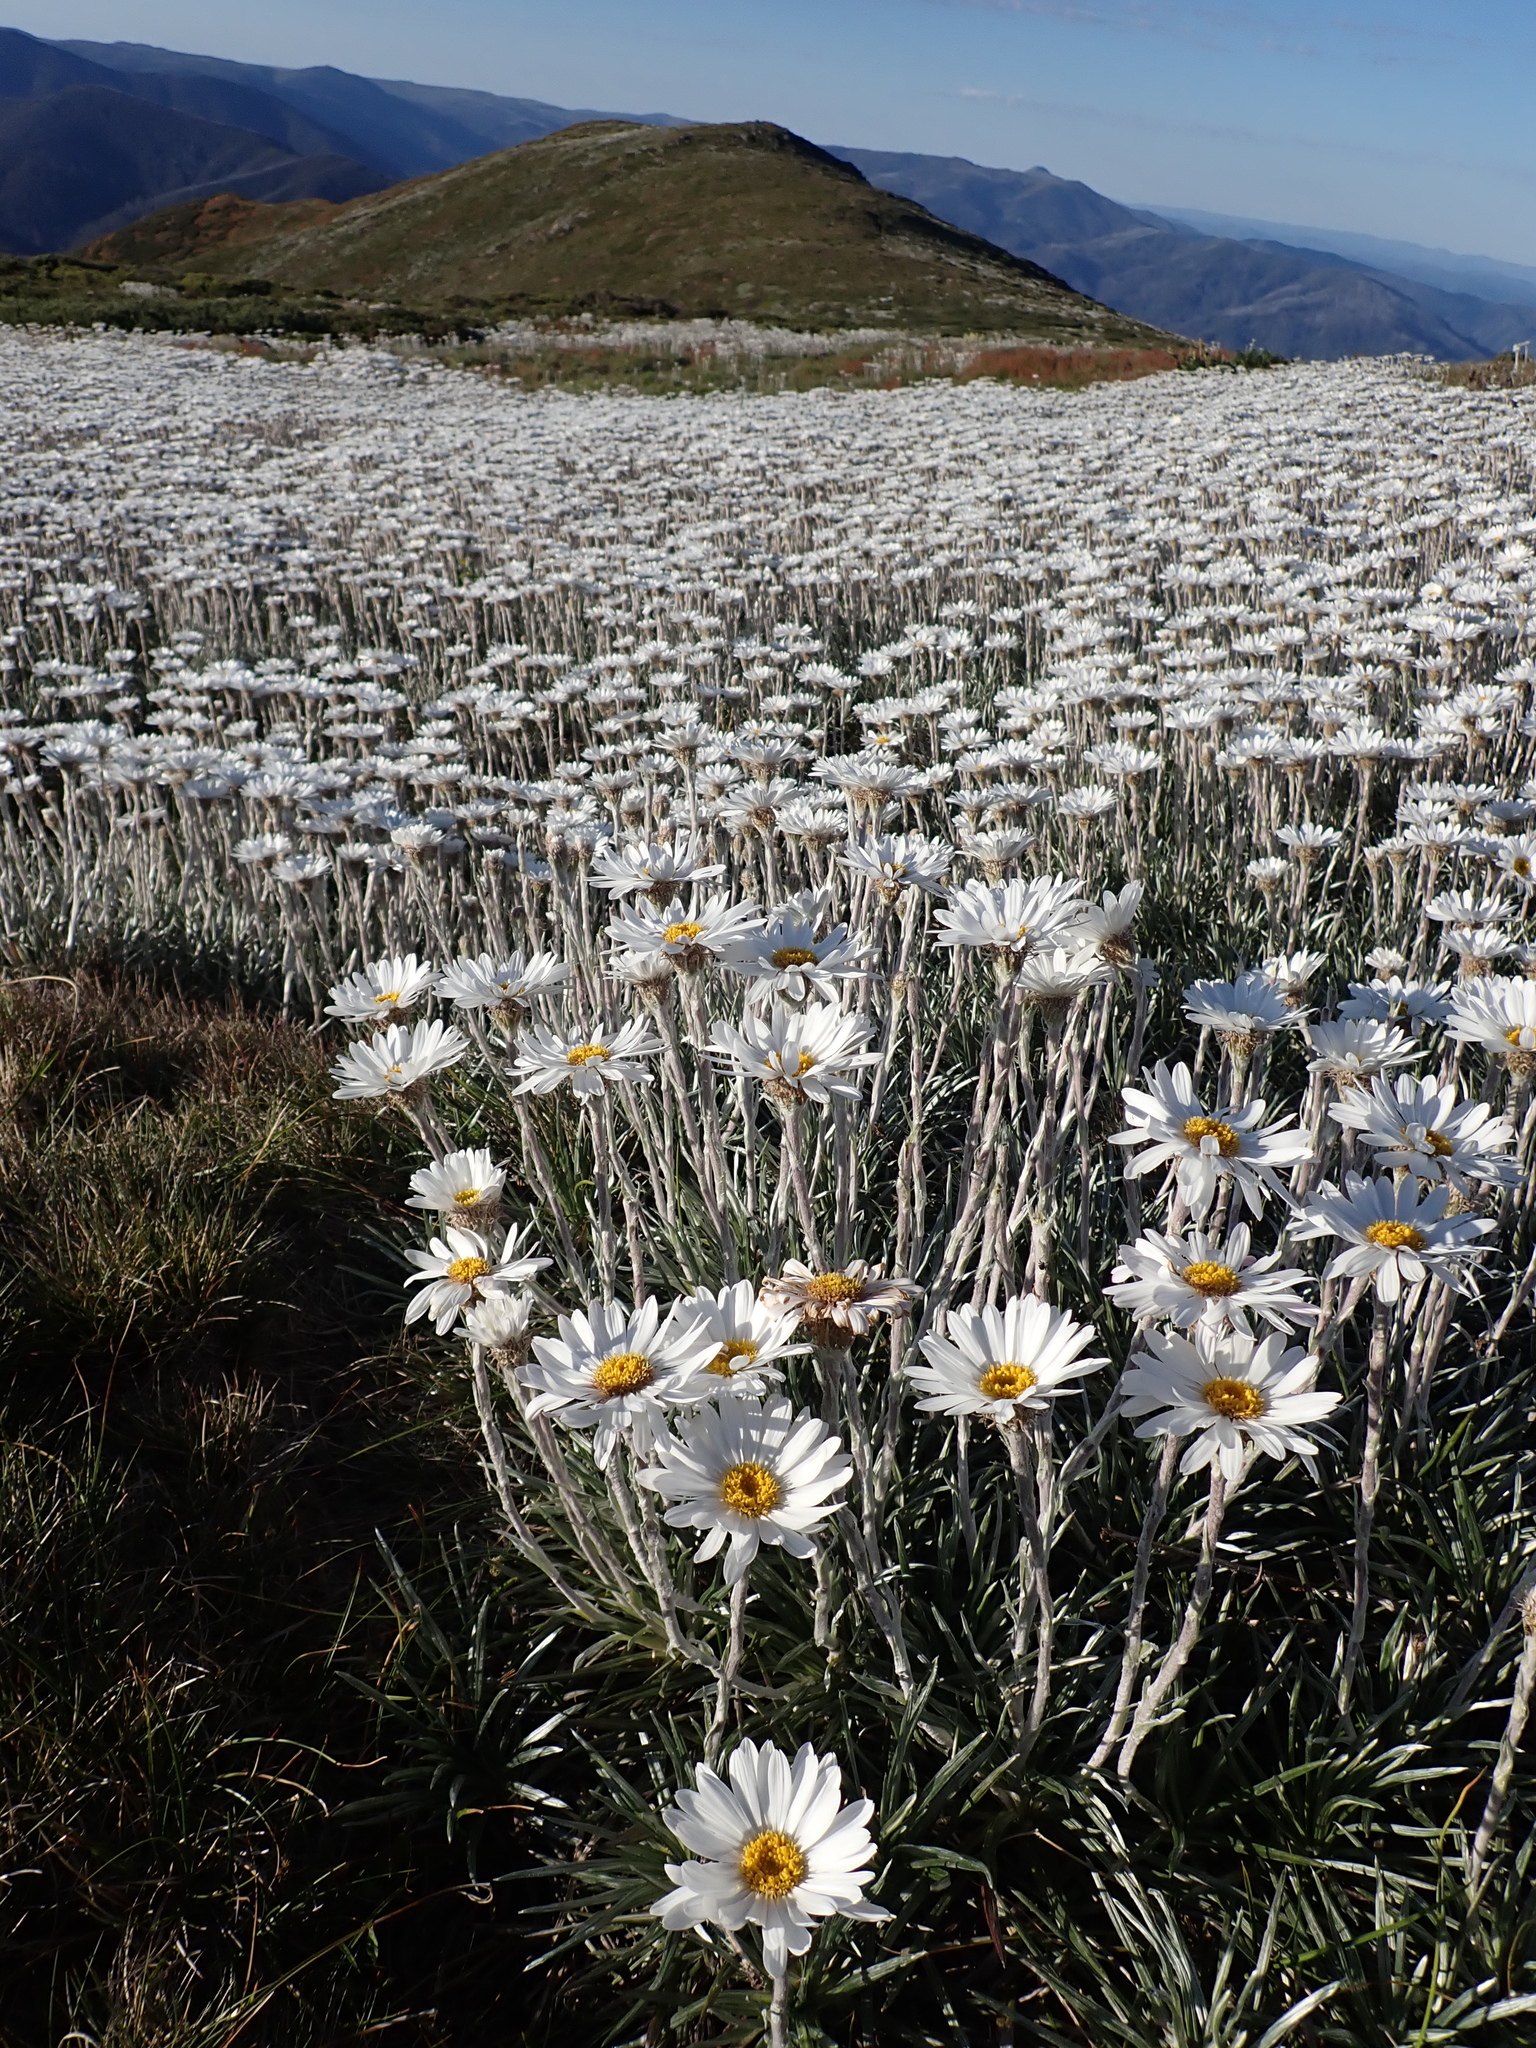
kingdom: Plantae
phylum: Tracheophyta
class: Magnoliopsida
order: Asterales
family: Asteraceae
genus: Celmisia
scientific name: Celmisia costiniana
